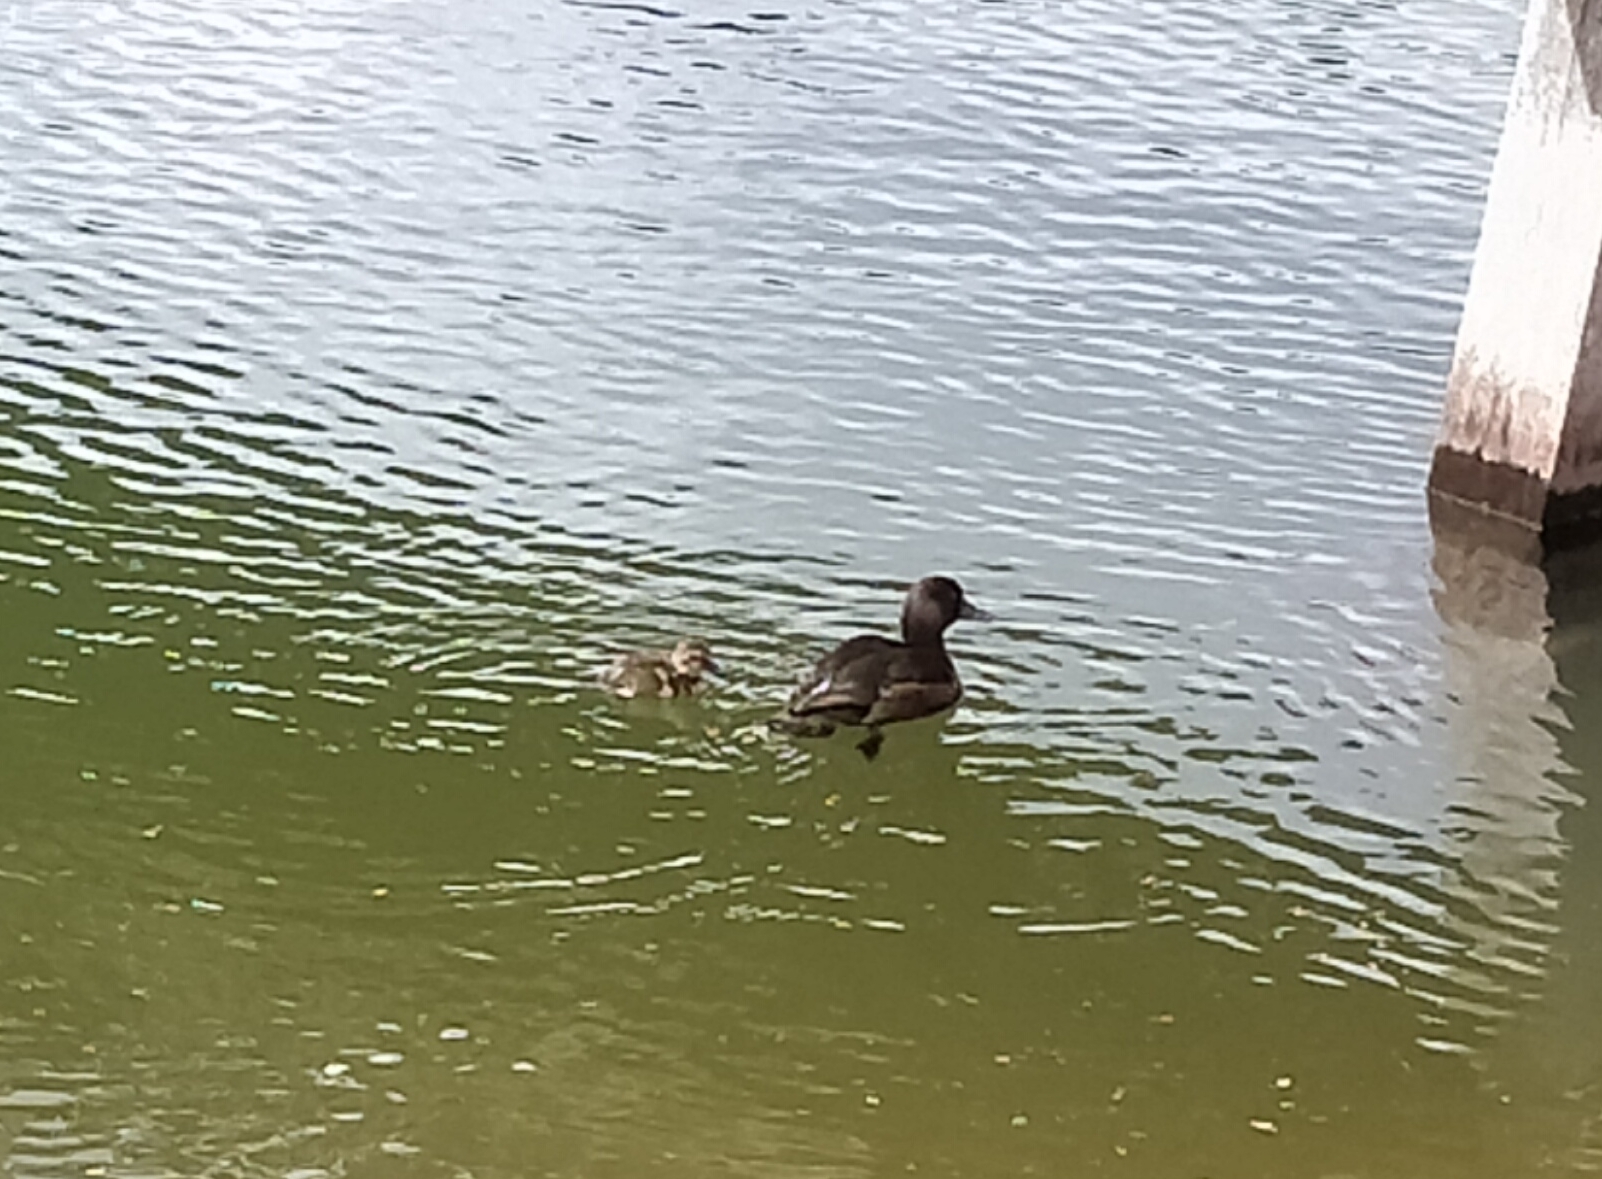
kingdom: Animalia
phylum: Chordata
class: Aves
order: Anseriformes
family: Anatidae
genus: Aythya
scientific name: Aythya novaeseelandiae
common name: New zealand scaup
